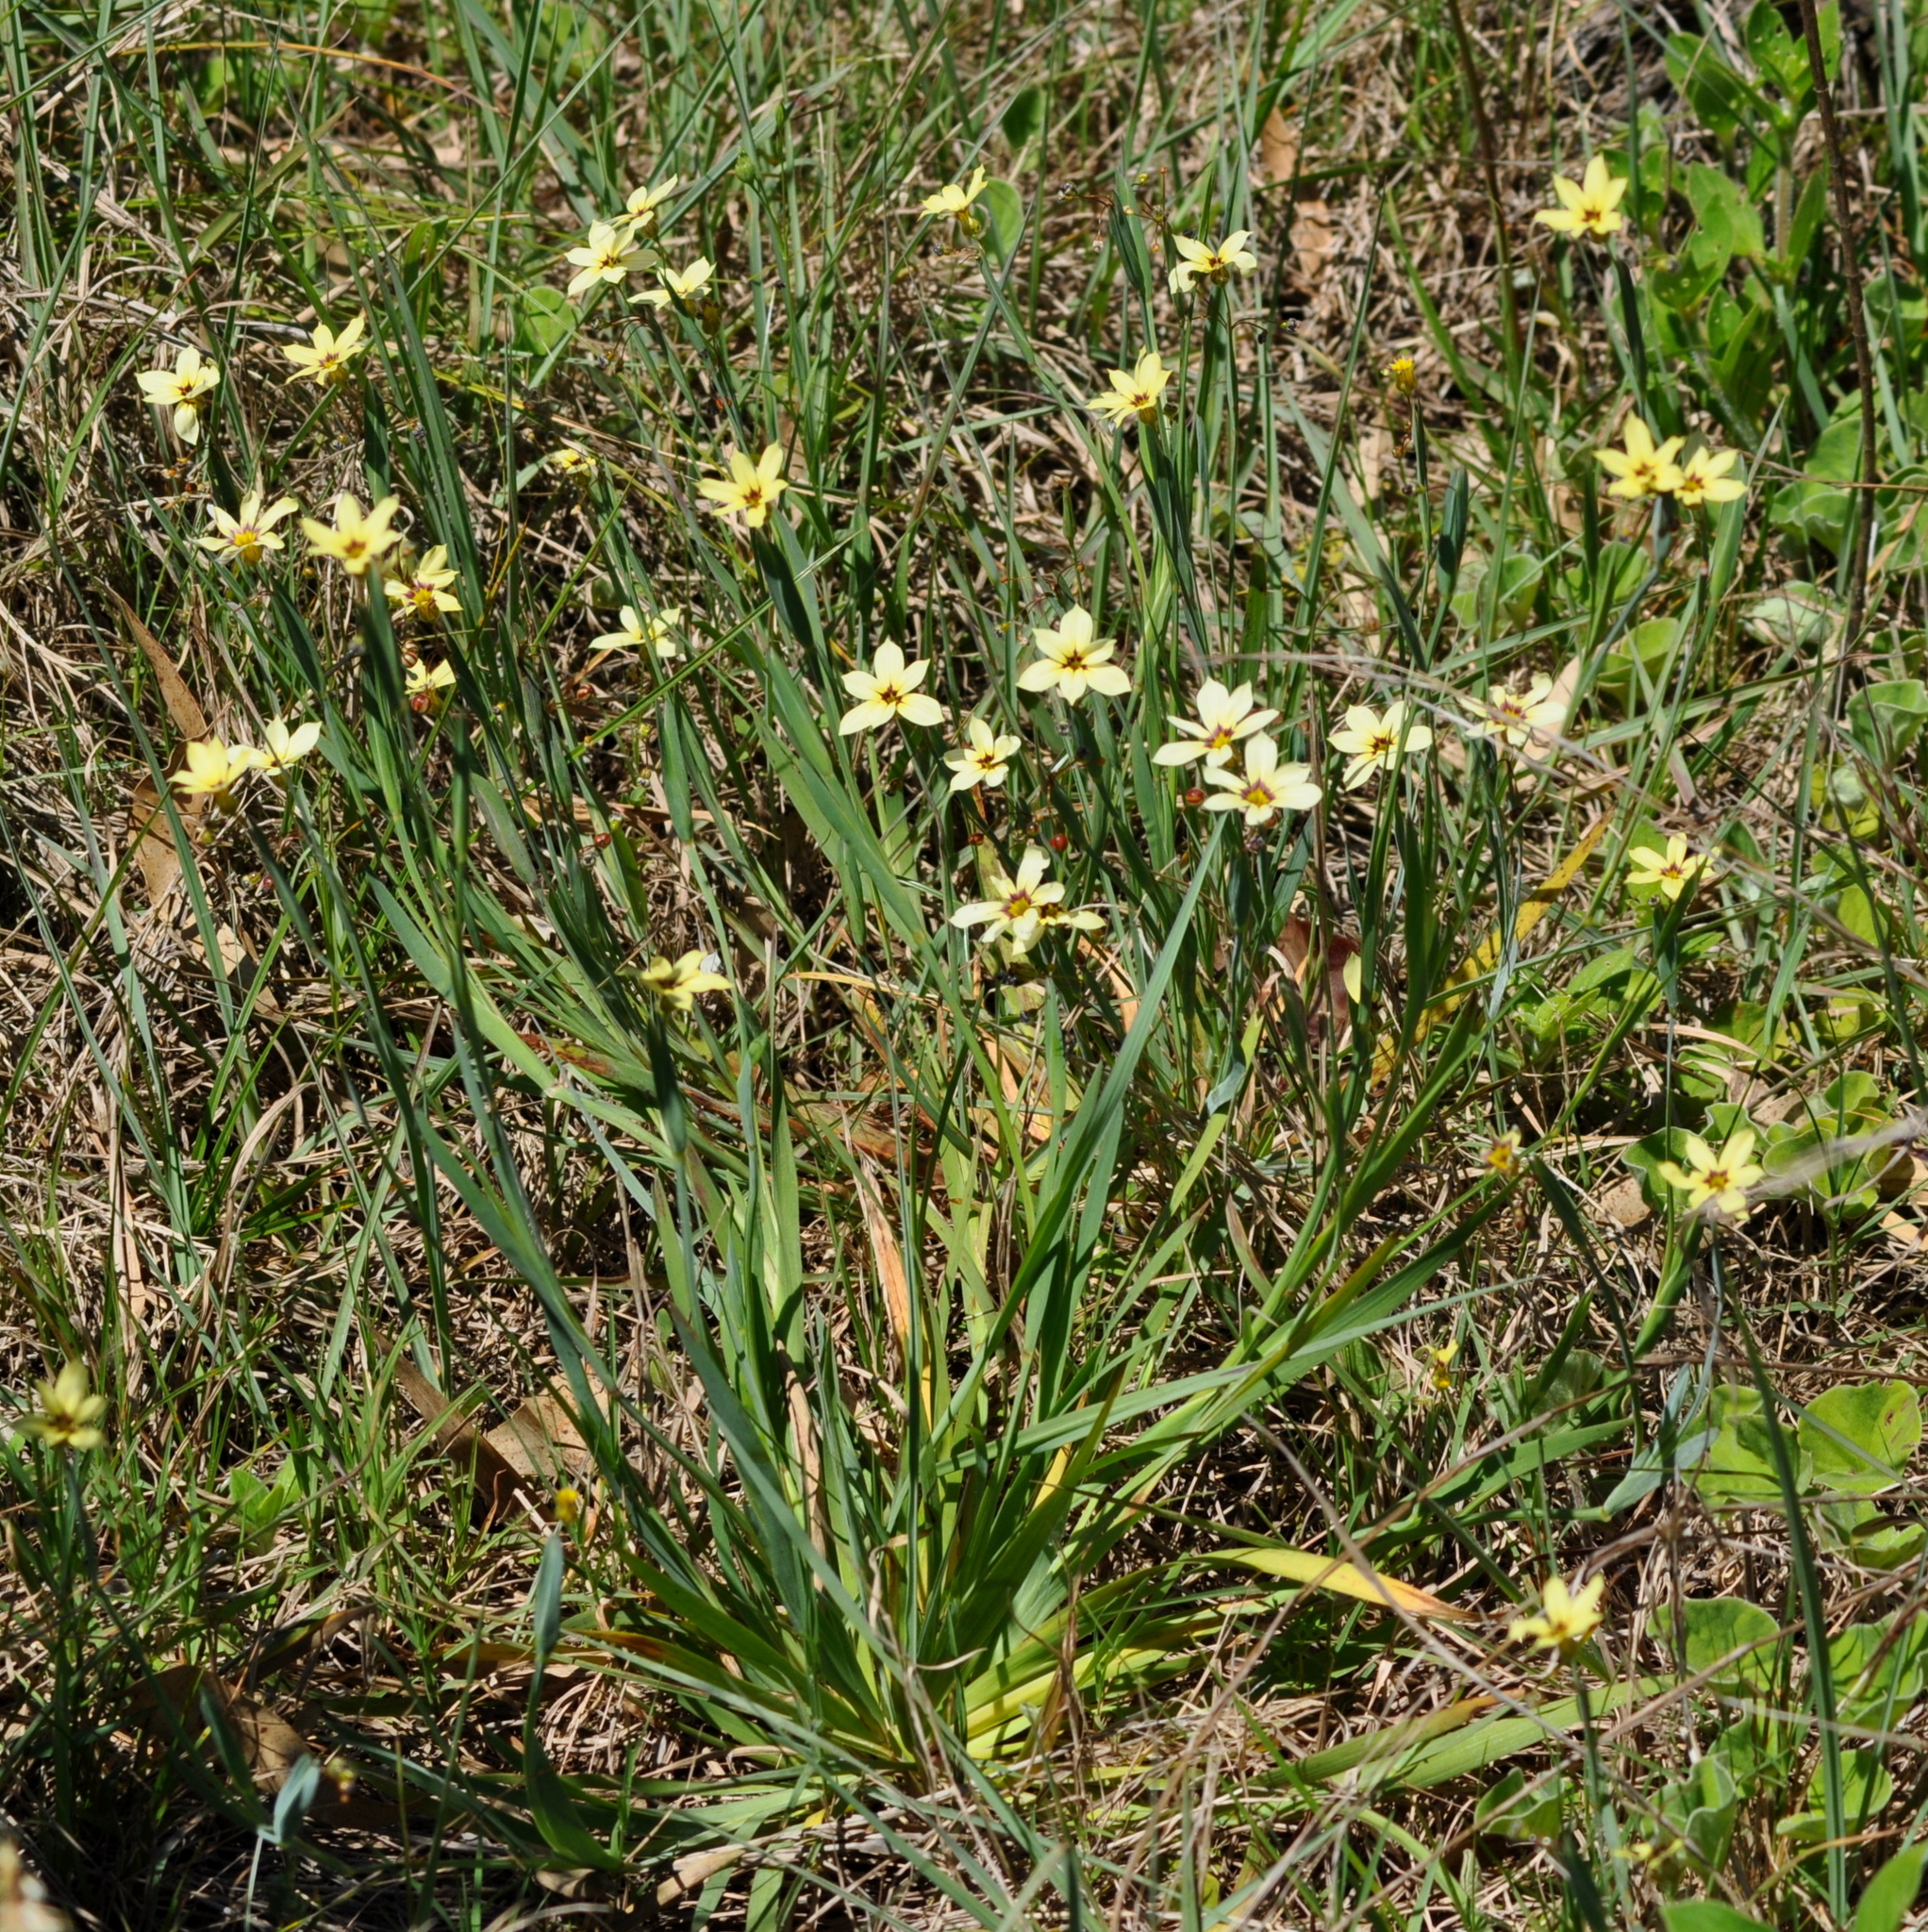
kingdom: Plantae
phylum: Tracheophyta
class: Liliopsida
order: Asparagales
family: Iridaceae
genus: Sisyrinchium
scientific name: Sisyrinchium micranthum
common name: Bermuda pigroot
